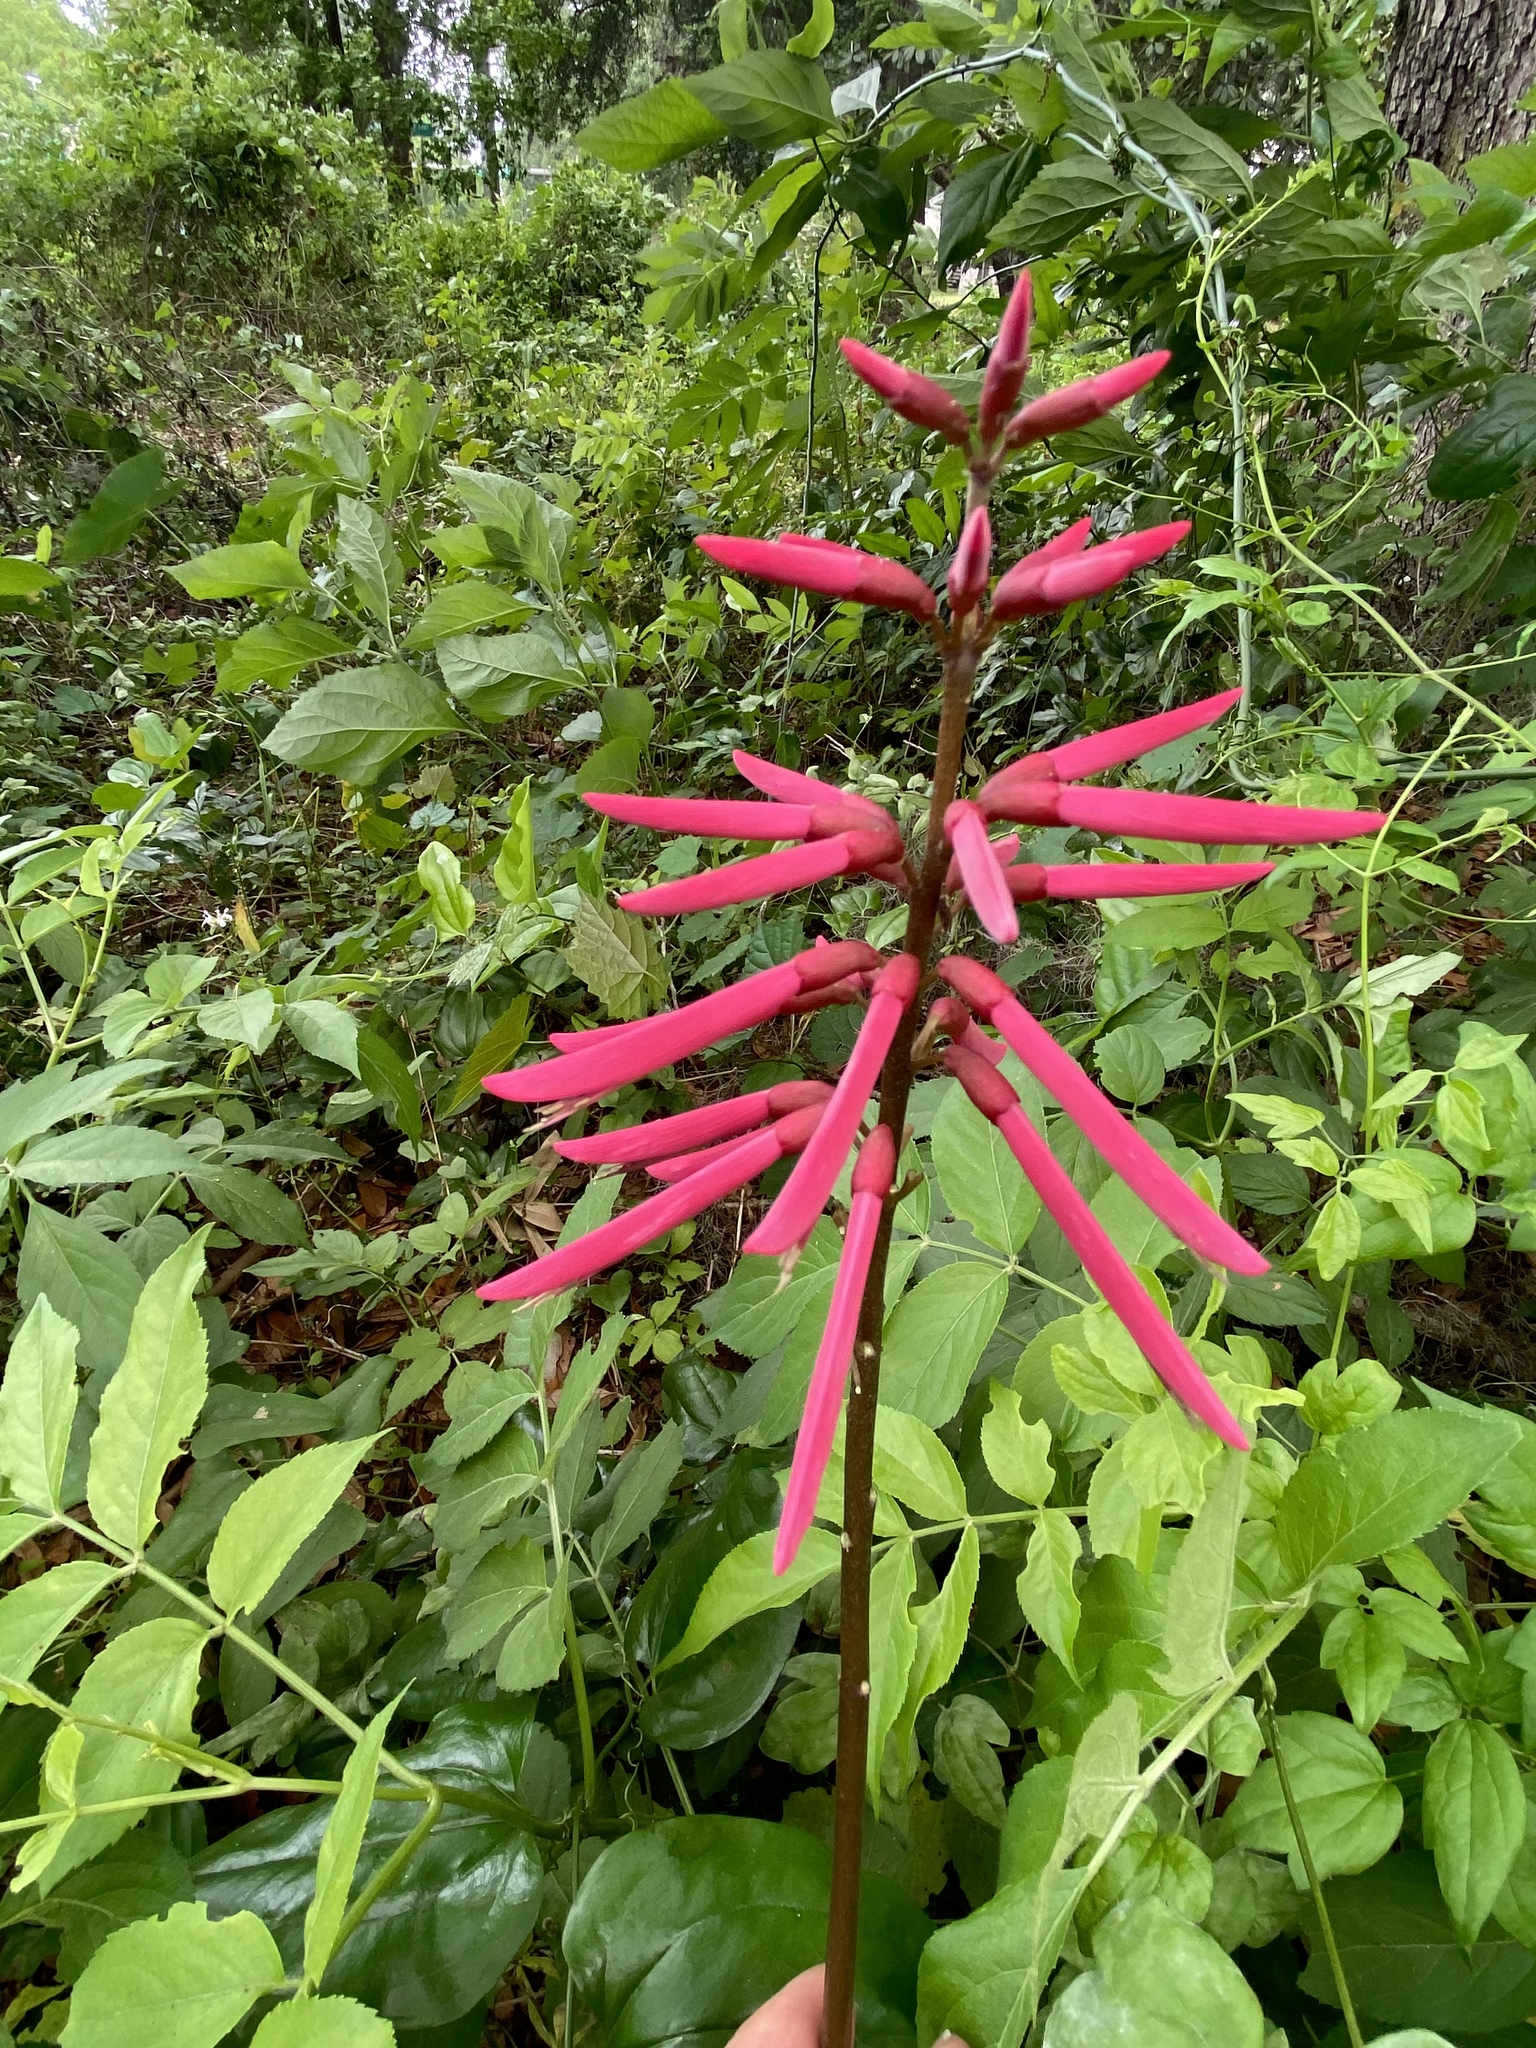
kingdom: Plantae
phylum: Tracheophyta
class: Magnoliopsida
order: Fabales
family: Fabaceae
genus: Erythrina
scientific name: Erythrina herbacea
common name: Coral-bean
